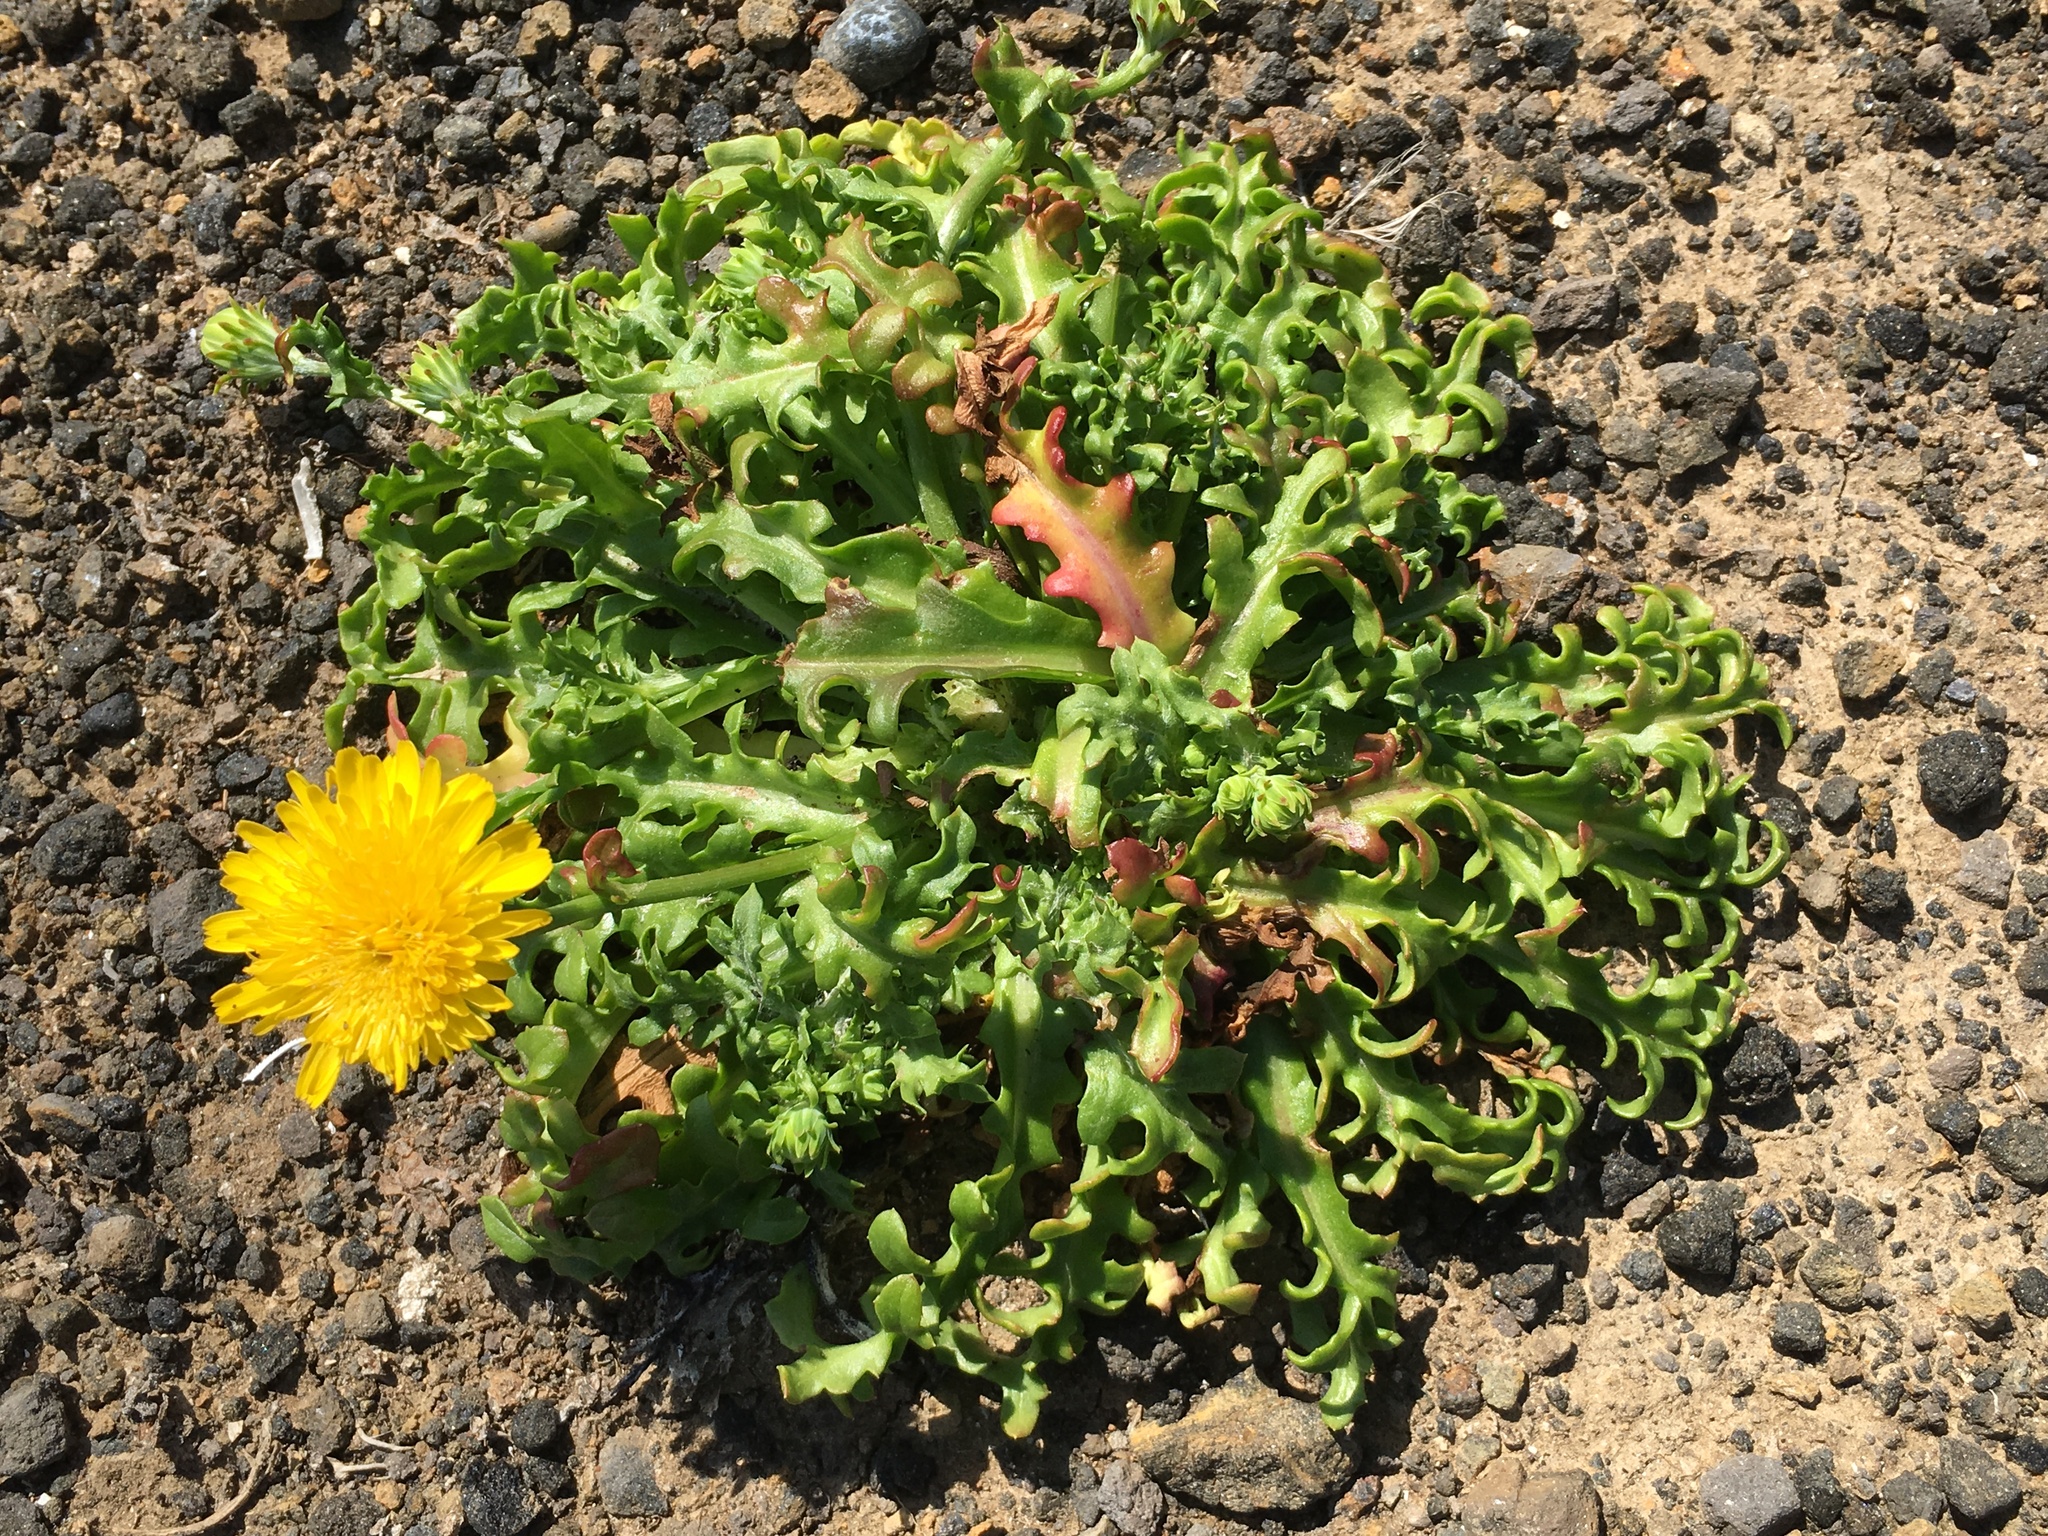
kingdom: Plantae
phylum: Tracheophyta
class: Magnoliopsida
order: Asterales
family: Asteraceae
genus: Malacothrix
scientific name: Malacothrix foliosa
